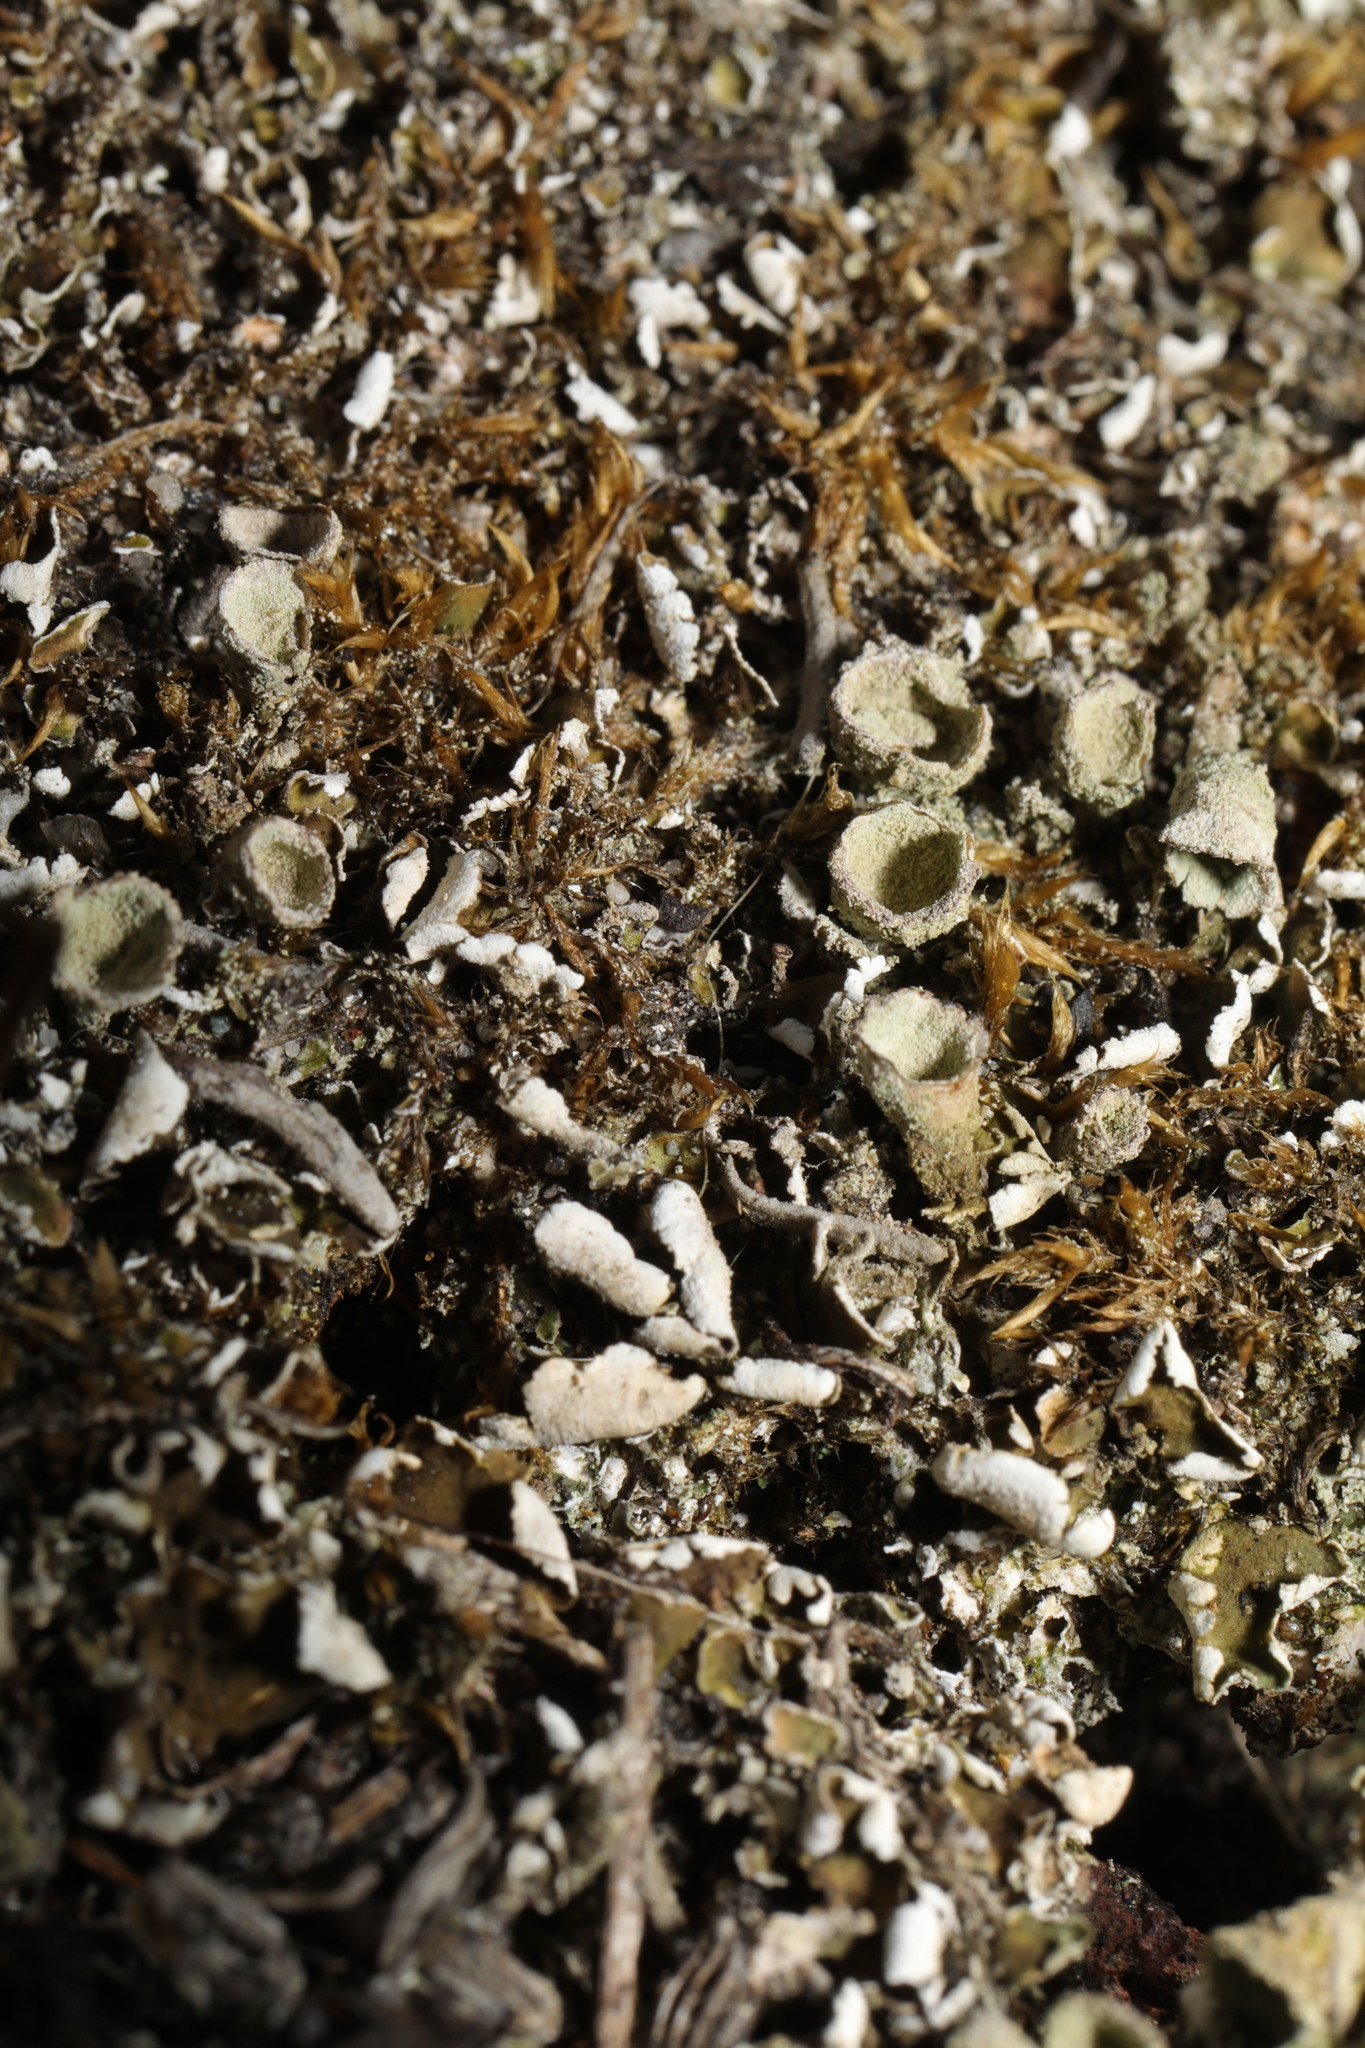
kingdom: Fungi
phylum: Ascomycota
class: Lecanoromycetes
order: Lecanorales
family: Cladoniaceae
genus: Cladonia
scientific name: Cladonia
